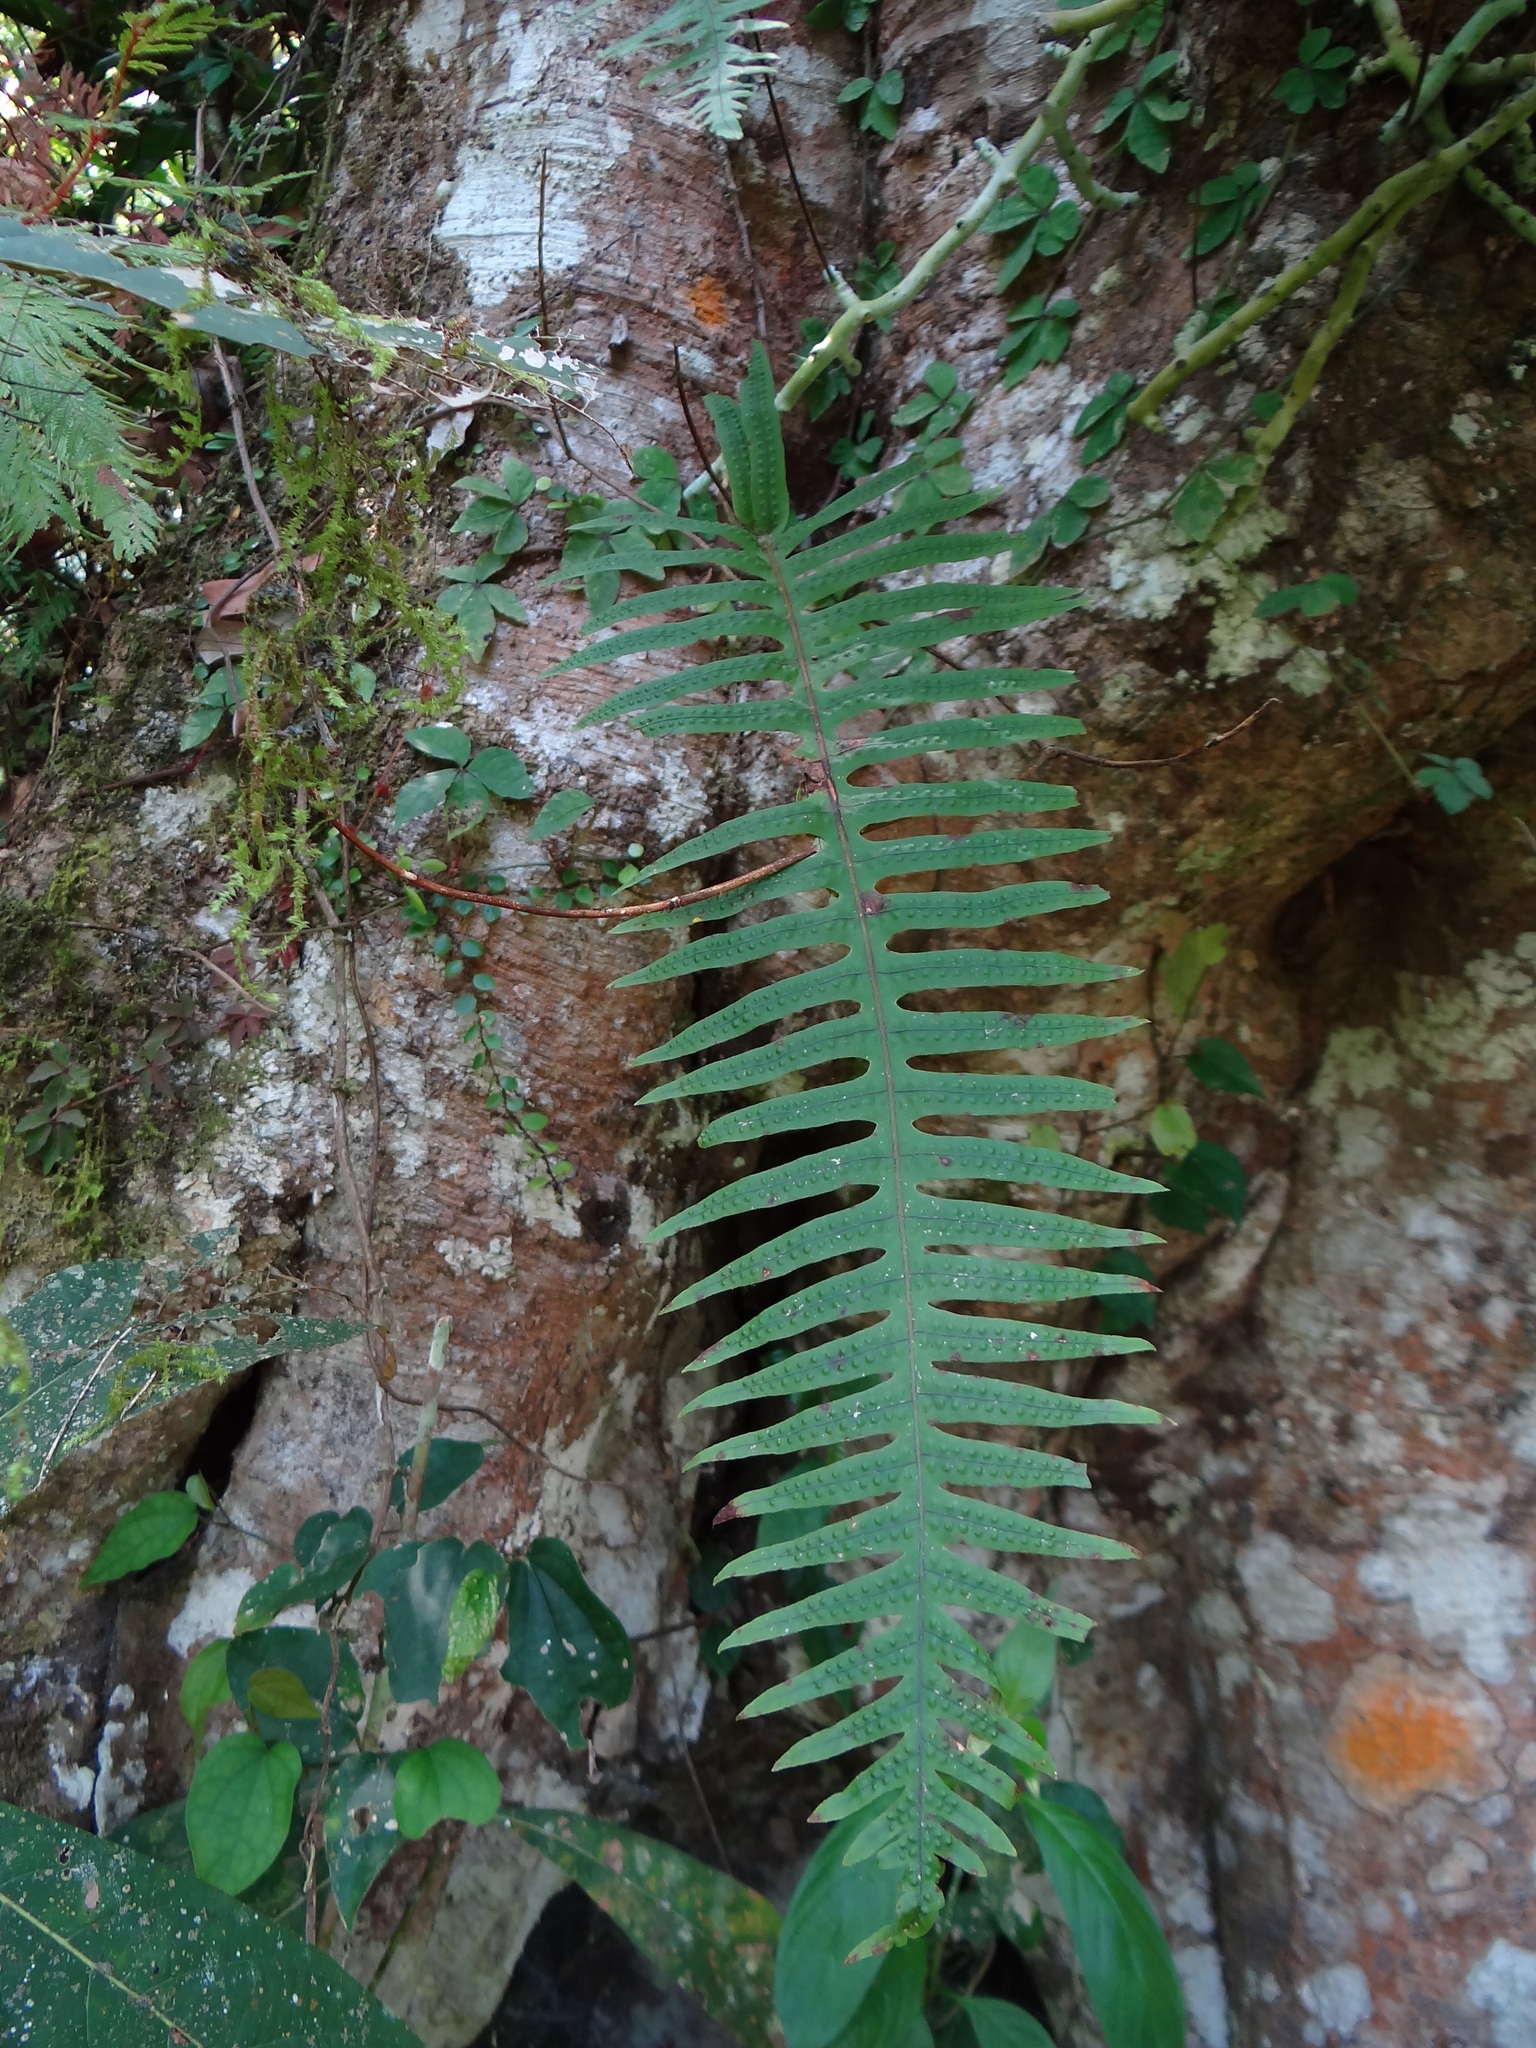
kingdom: Plantae
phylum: Tracheophyta
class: Polypodiopsida
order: Polypodiales
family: Polypodiaceae
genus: Goniophlebium
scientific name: Goniophlebium formosanum
